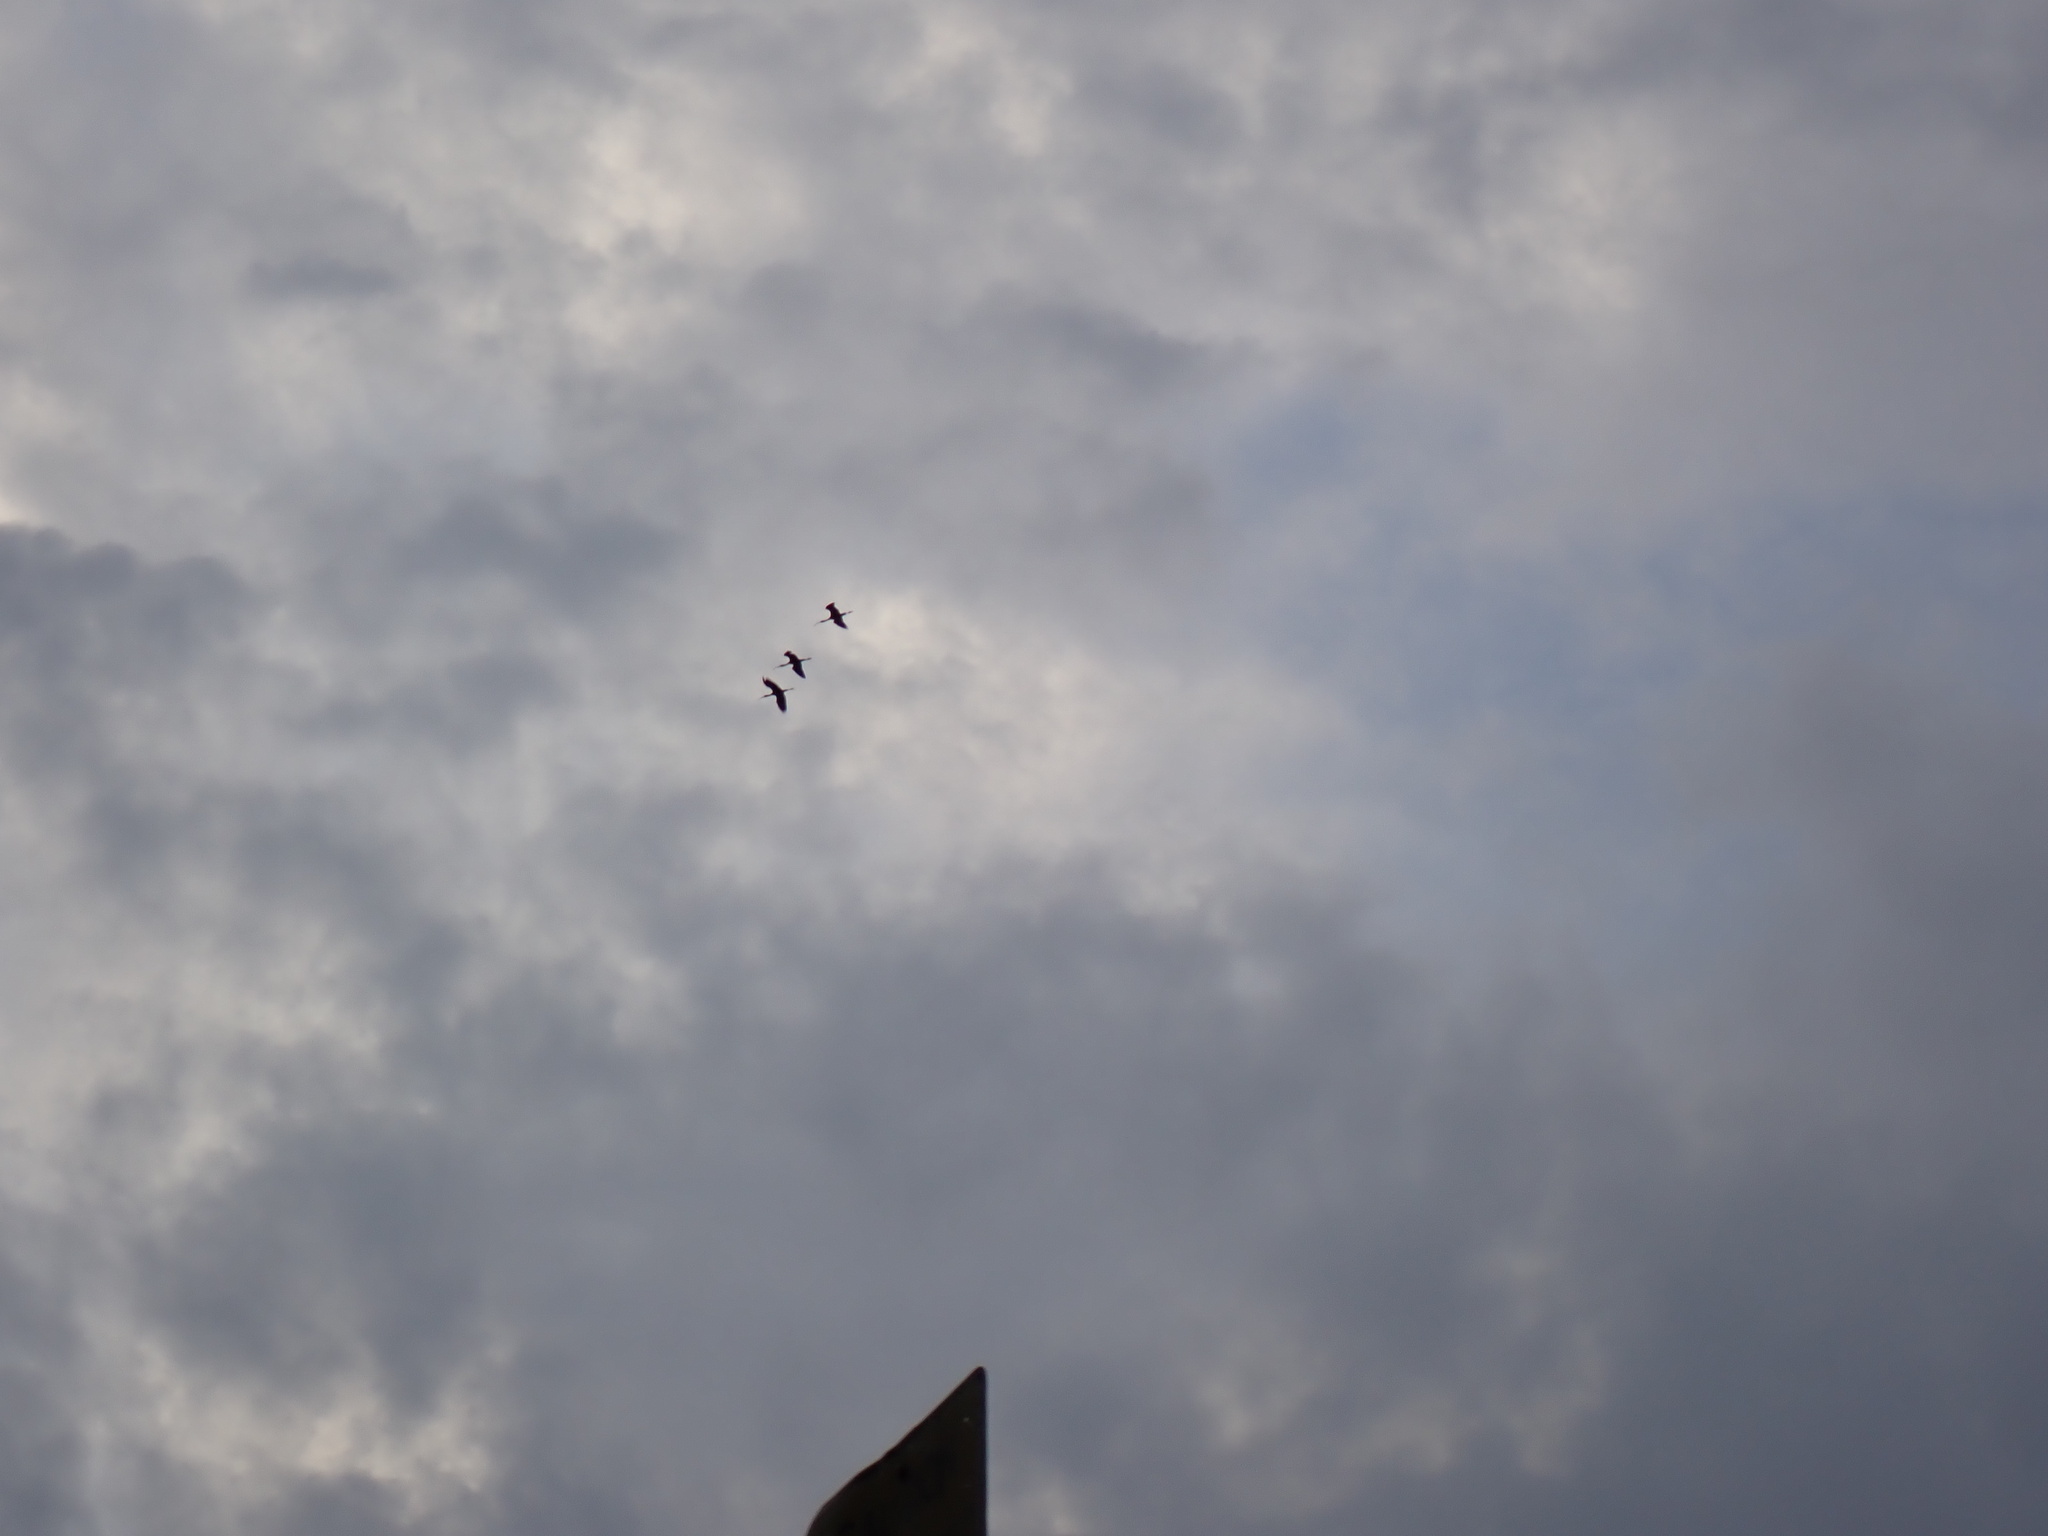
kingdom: Animalia
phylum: Chordata
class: Aves
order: Pelecaniformes
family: Threskiornithidae
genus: Plegadis
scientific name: Plegadis chihi
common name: White-faced ibis
